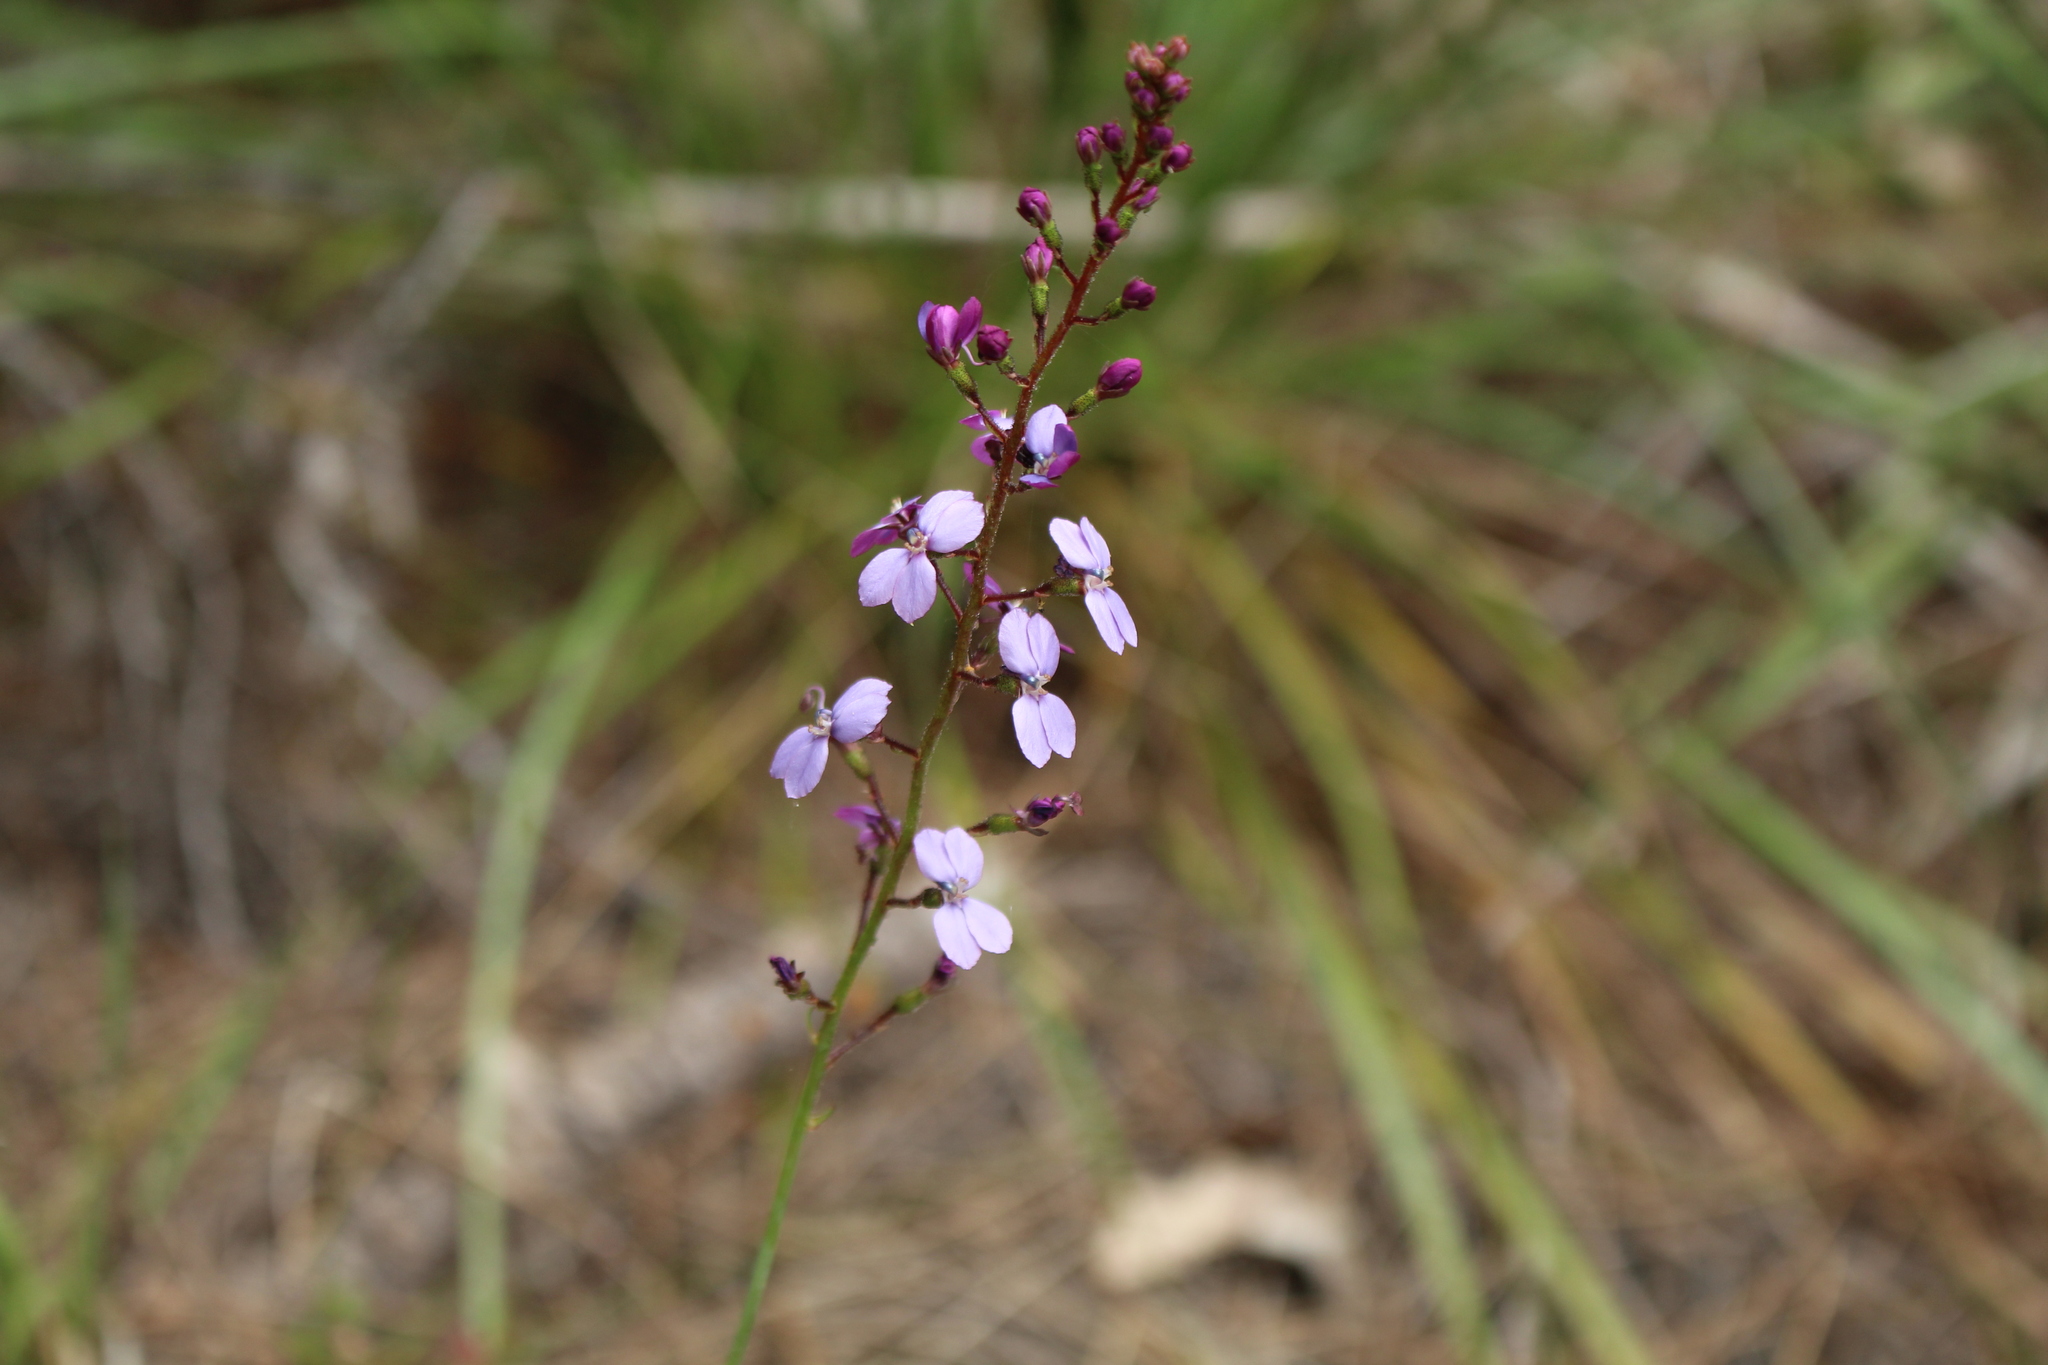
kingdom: Plantae
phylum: Tracheophyta
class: Magnoliopsida
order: Asterales
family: Stylidiaceae
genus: Stylidium
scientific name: Stylidium amoenum
